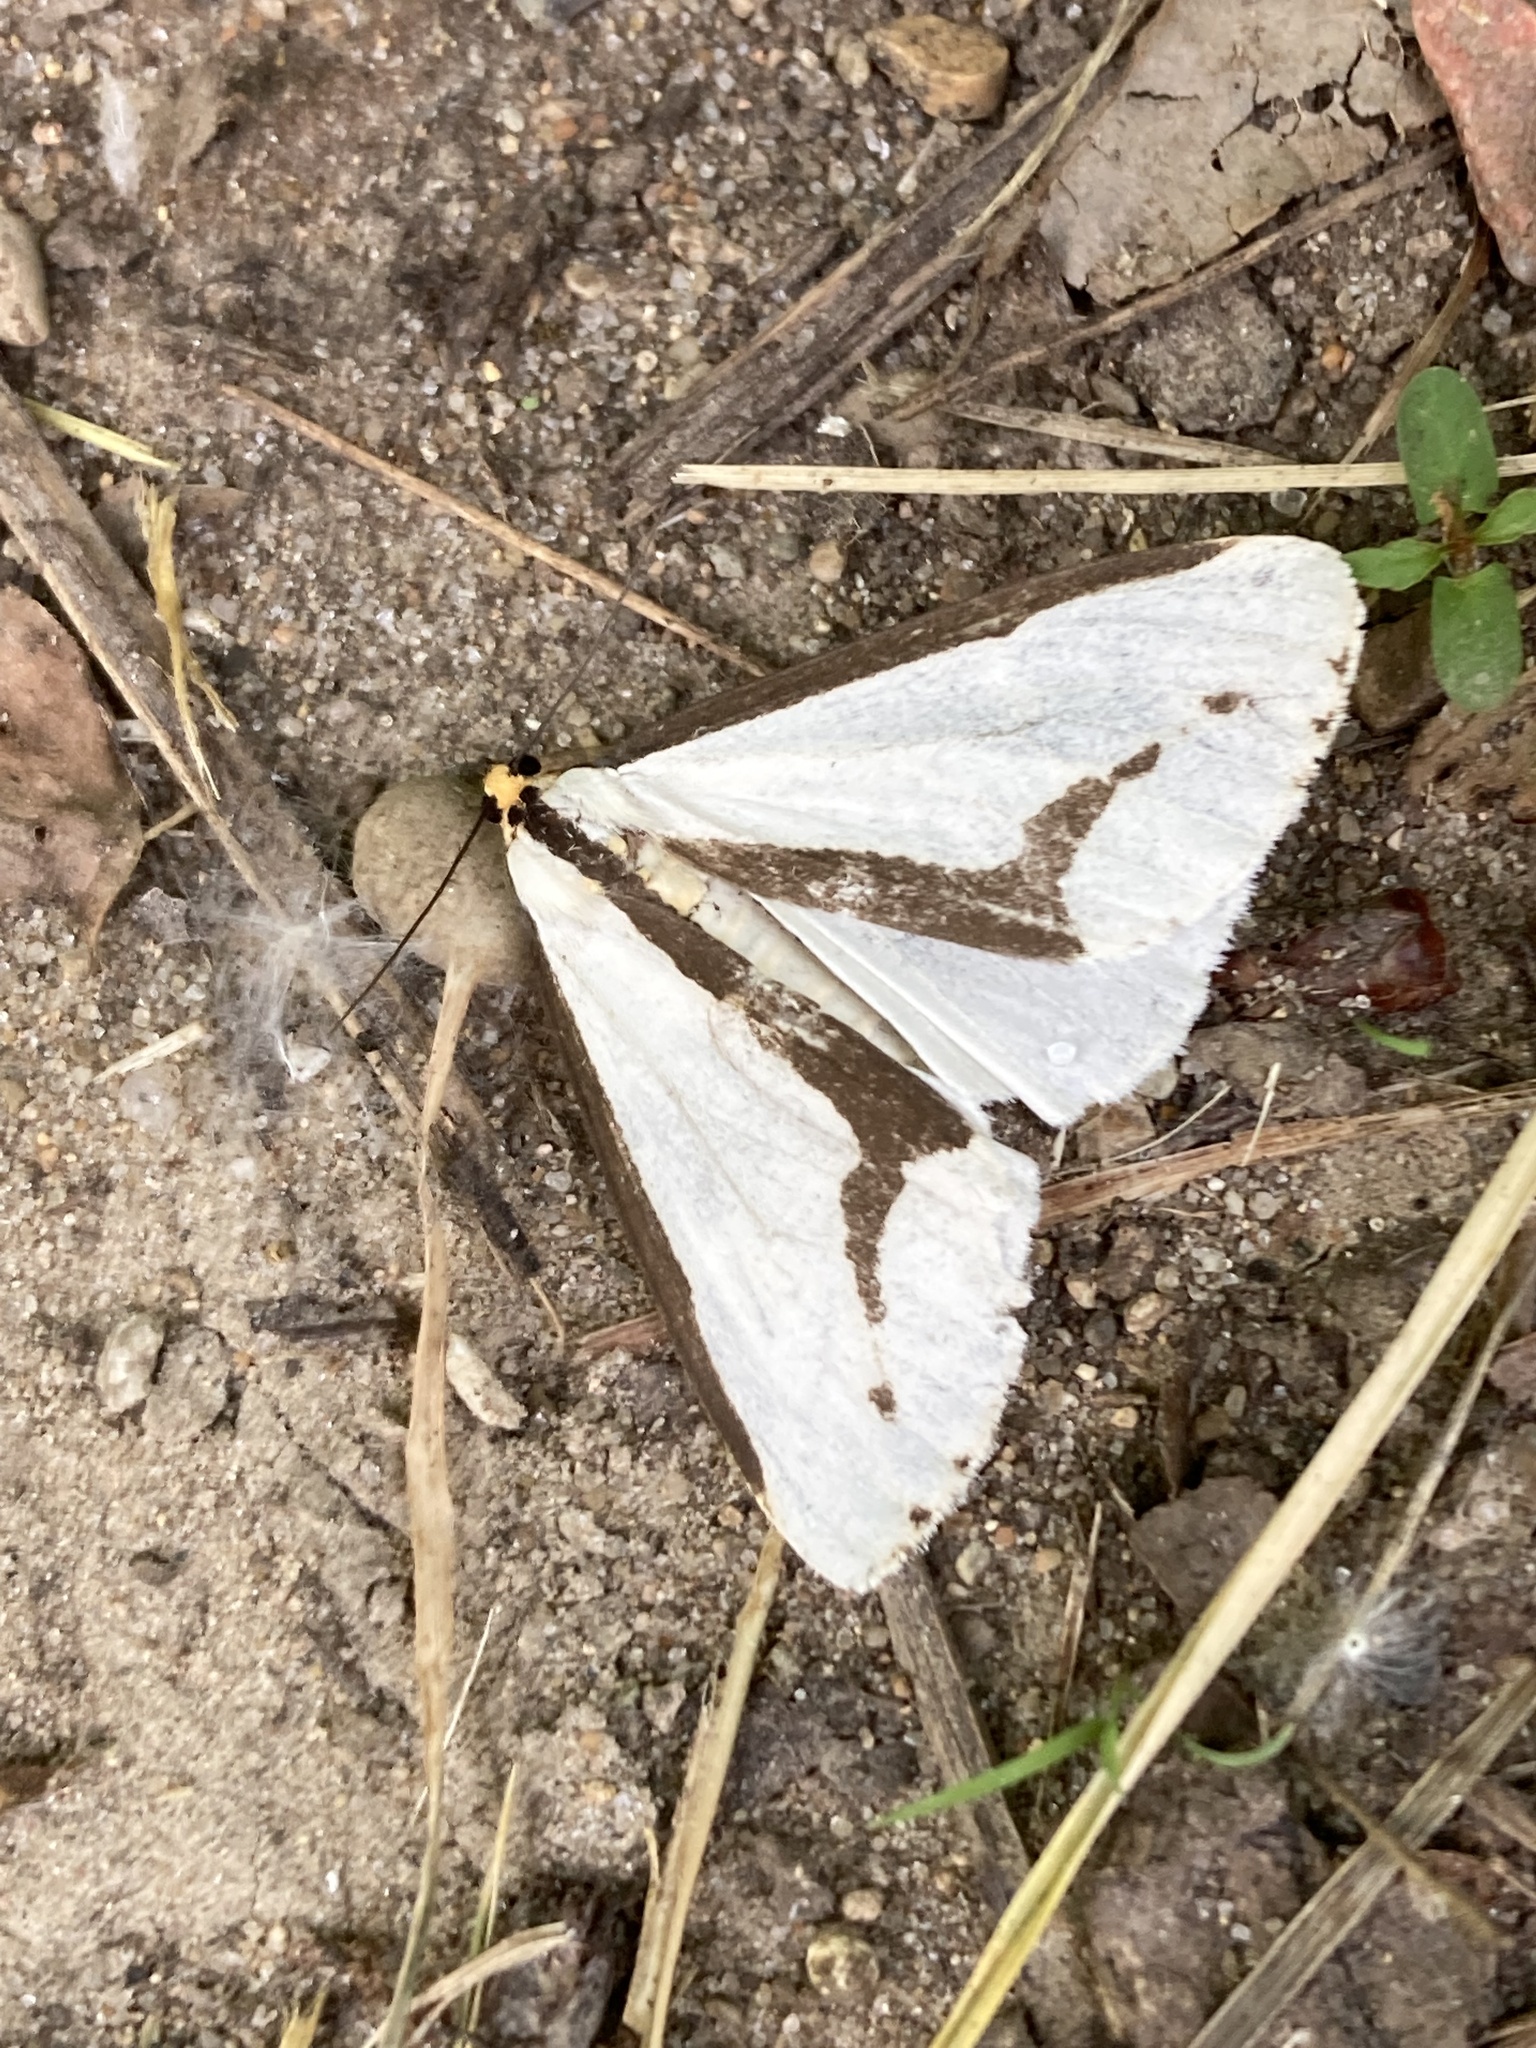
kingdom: Animalia
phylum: Arthropoda
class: Insecta
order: Lepidoptera
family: Erebidae
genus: Haploa
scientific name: Haploa lecontei
